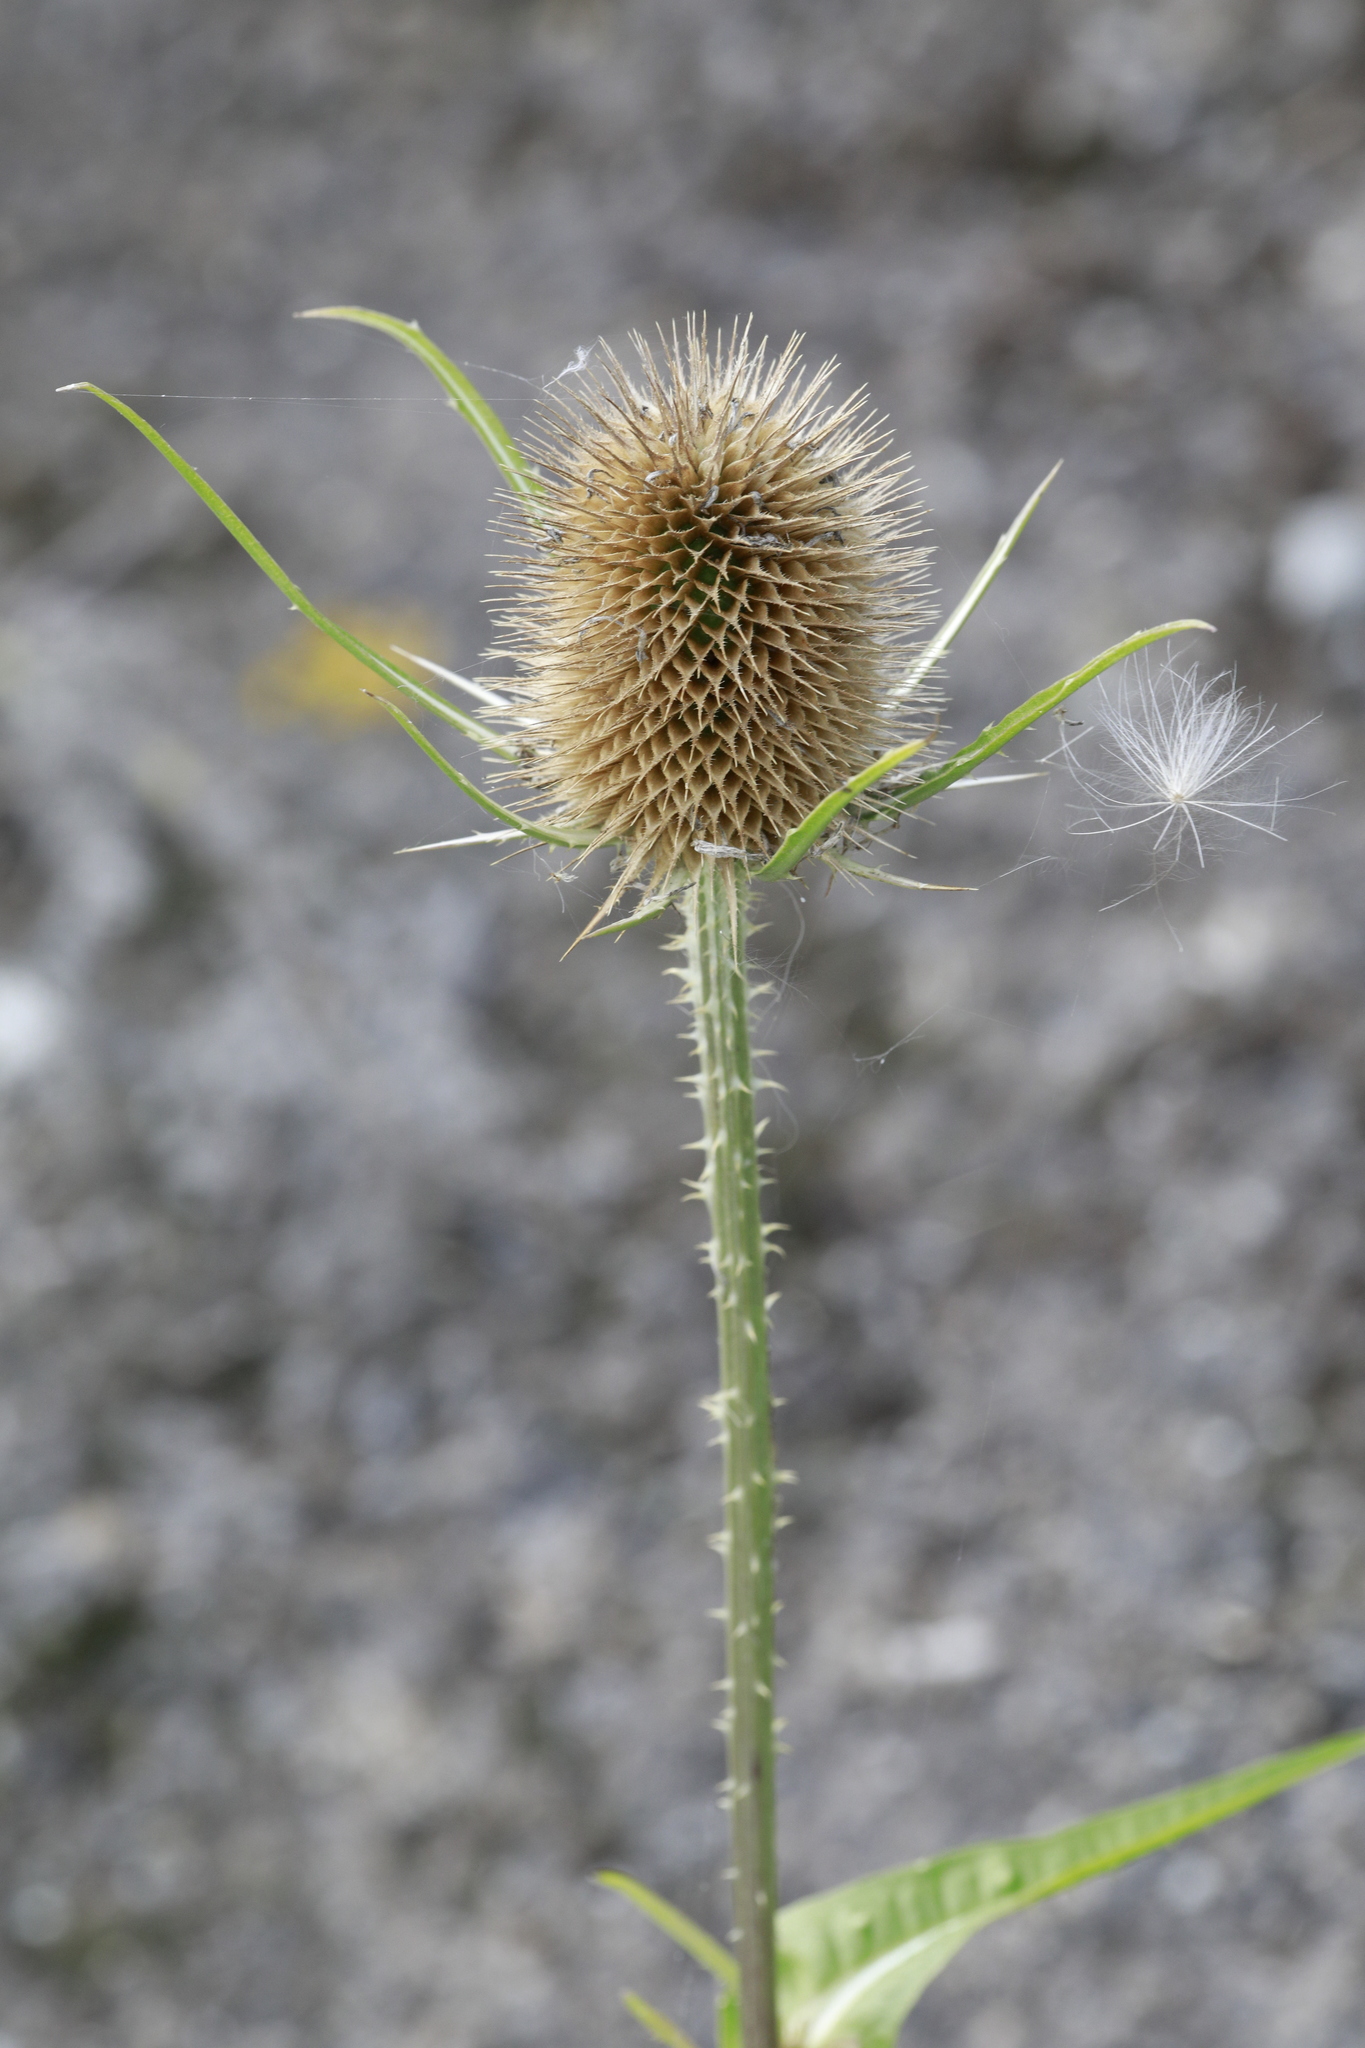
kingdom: Plantae
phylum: Tracheophyta
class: Magnoliopsida
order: Dipsacales
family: Caprifoliaceae
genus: Dipsacus
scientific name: Dipsacus fullonum
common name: Teasel
